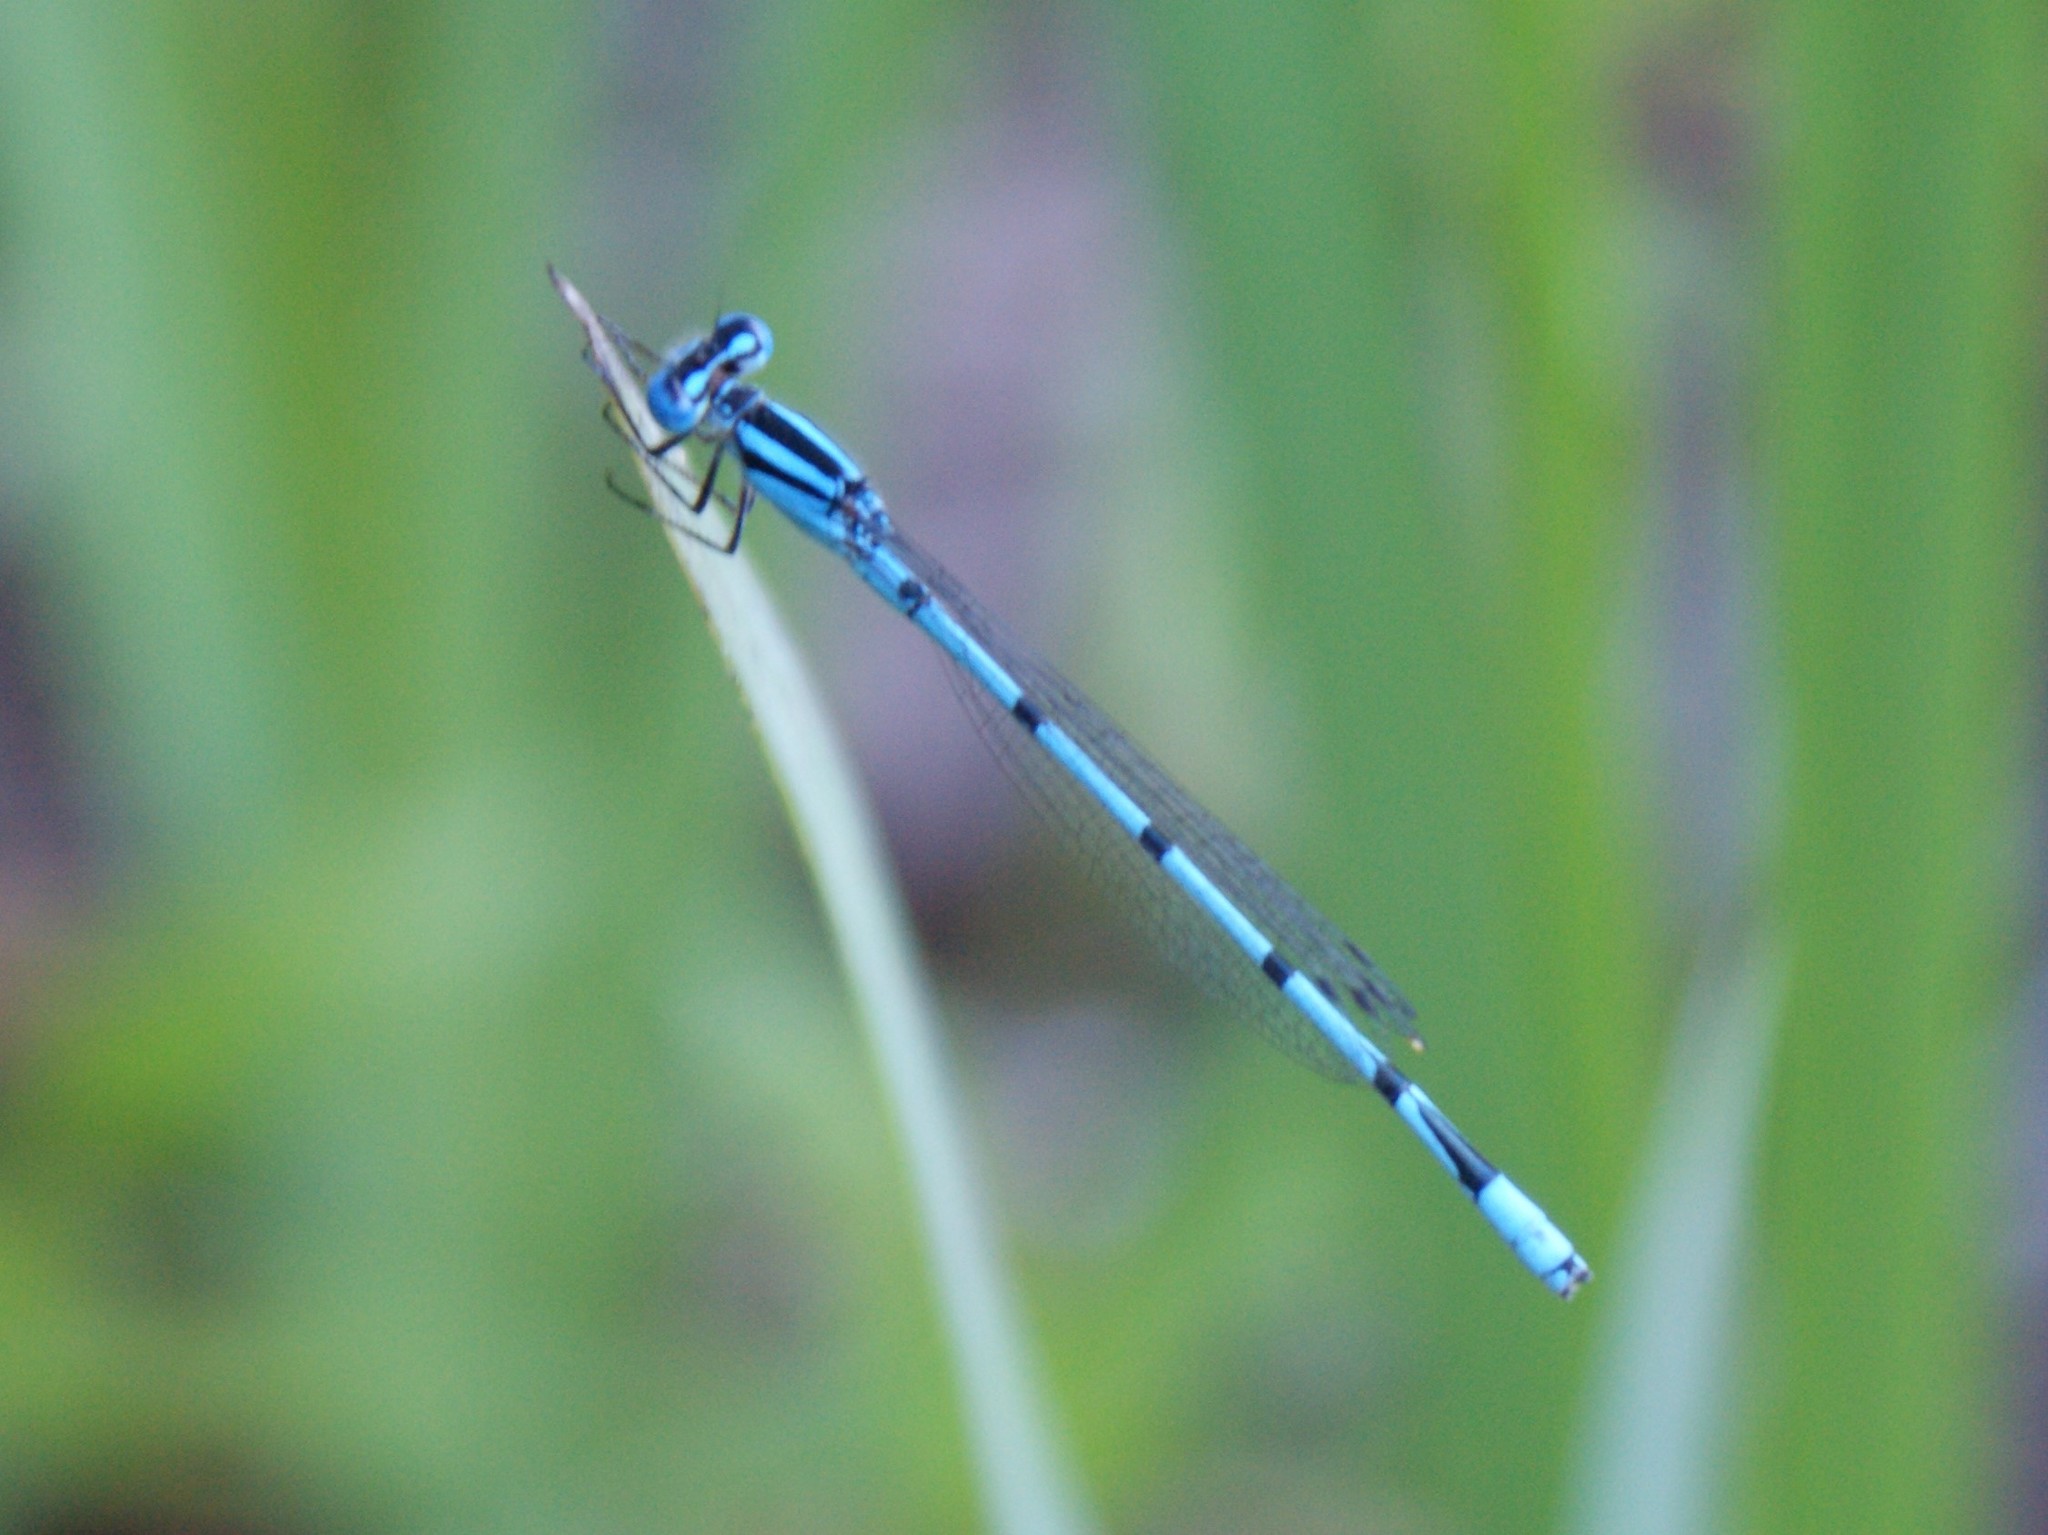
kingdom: Animalia
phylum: Arthropoda
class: Insecta
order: Odonata
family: Coenagrionidae
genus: Enallagma
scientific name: Enallagma doubledayi
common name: Atlantic bluet
